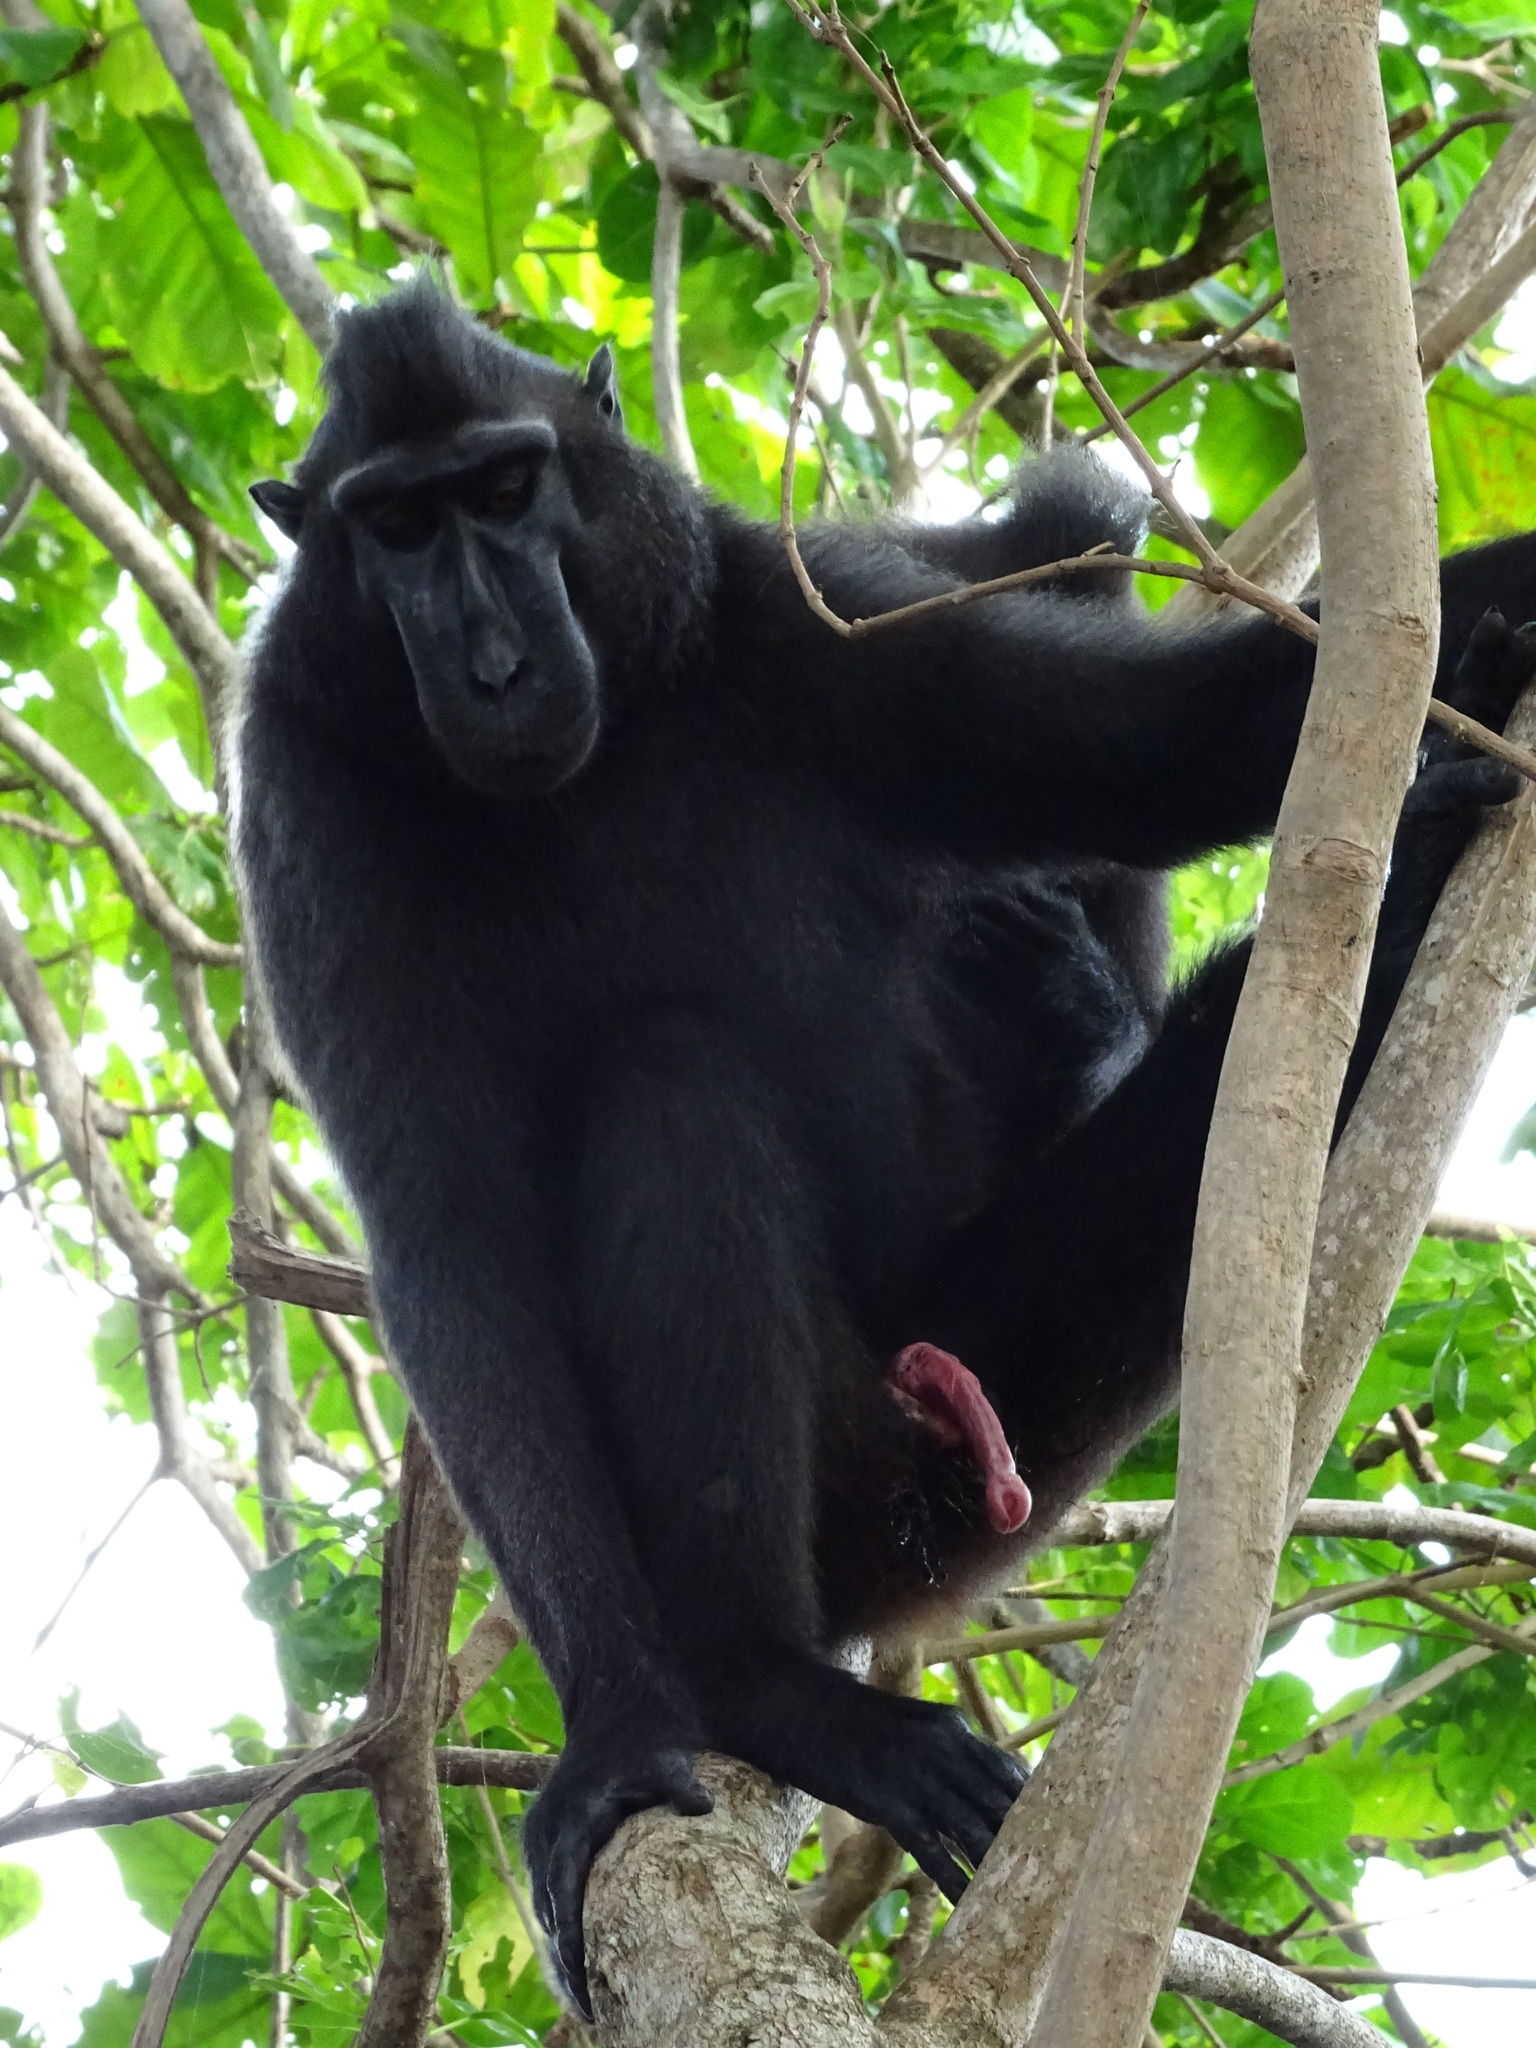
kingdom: Animalia
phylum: Chordata
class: Mammalia
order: Primates
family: Cercopithecidae
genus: Macaca
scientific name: Macaca nigra
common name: Celebes crested macaque
